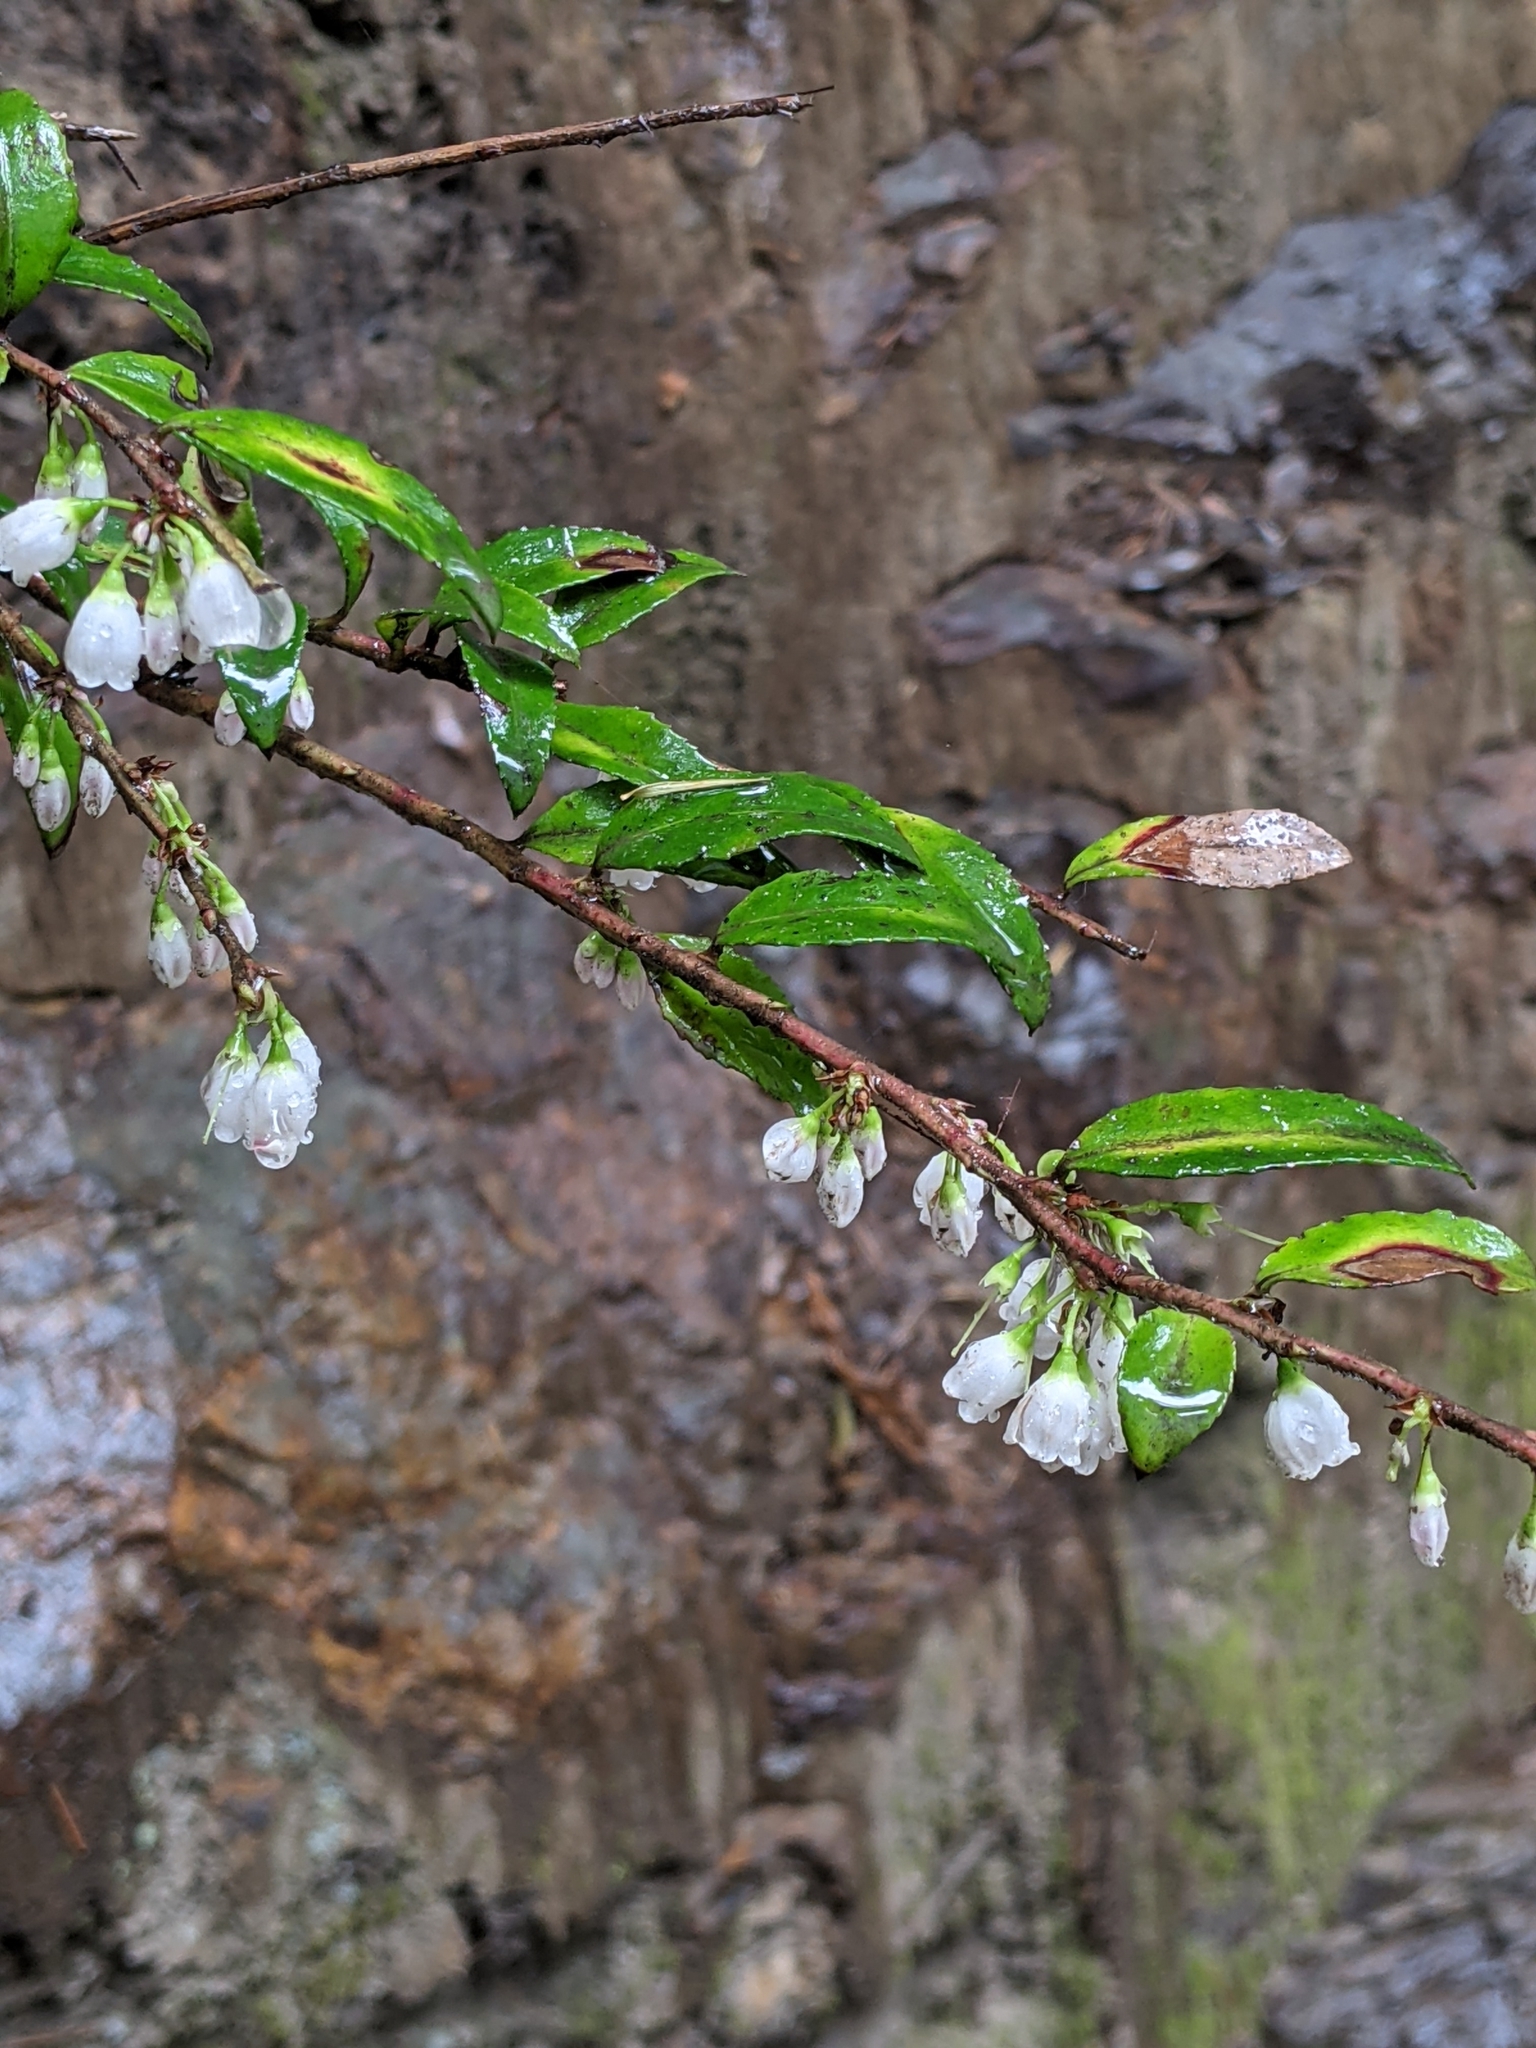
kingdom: Plantae
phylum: Tracheophyta
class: Magnoliopsida
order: Ericales
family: Ericaceae
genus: Vaccinium
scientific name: Vaccinium ovatum
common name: California-huckleberry
